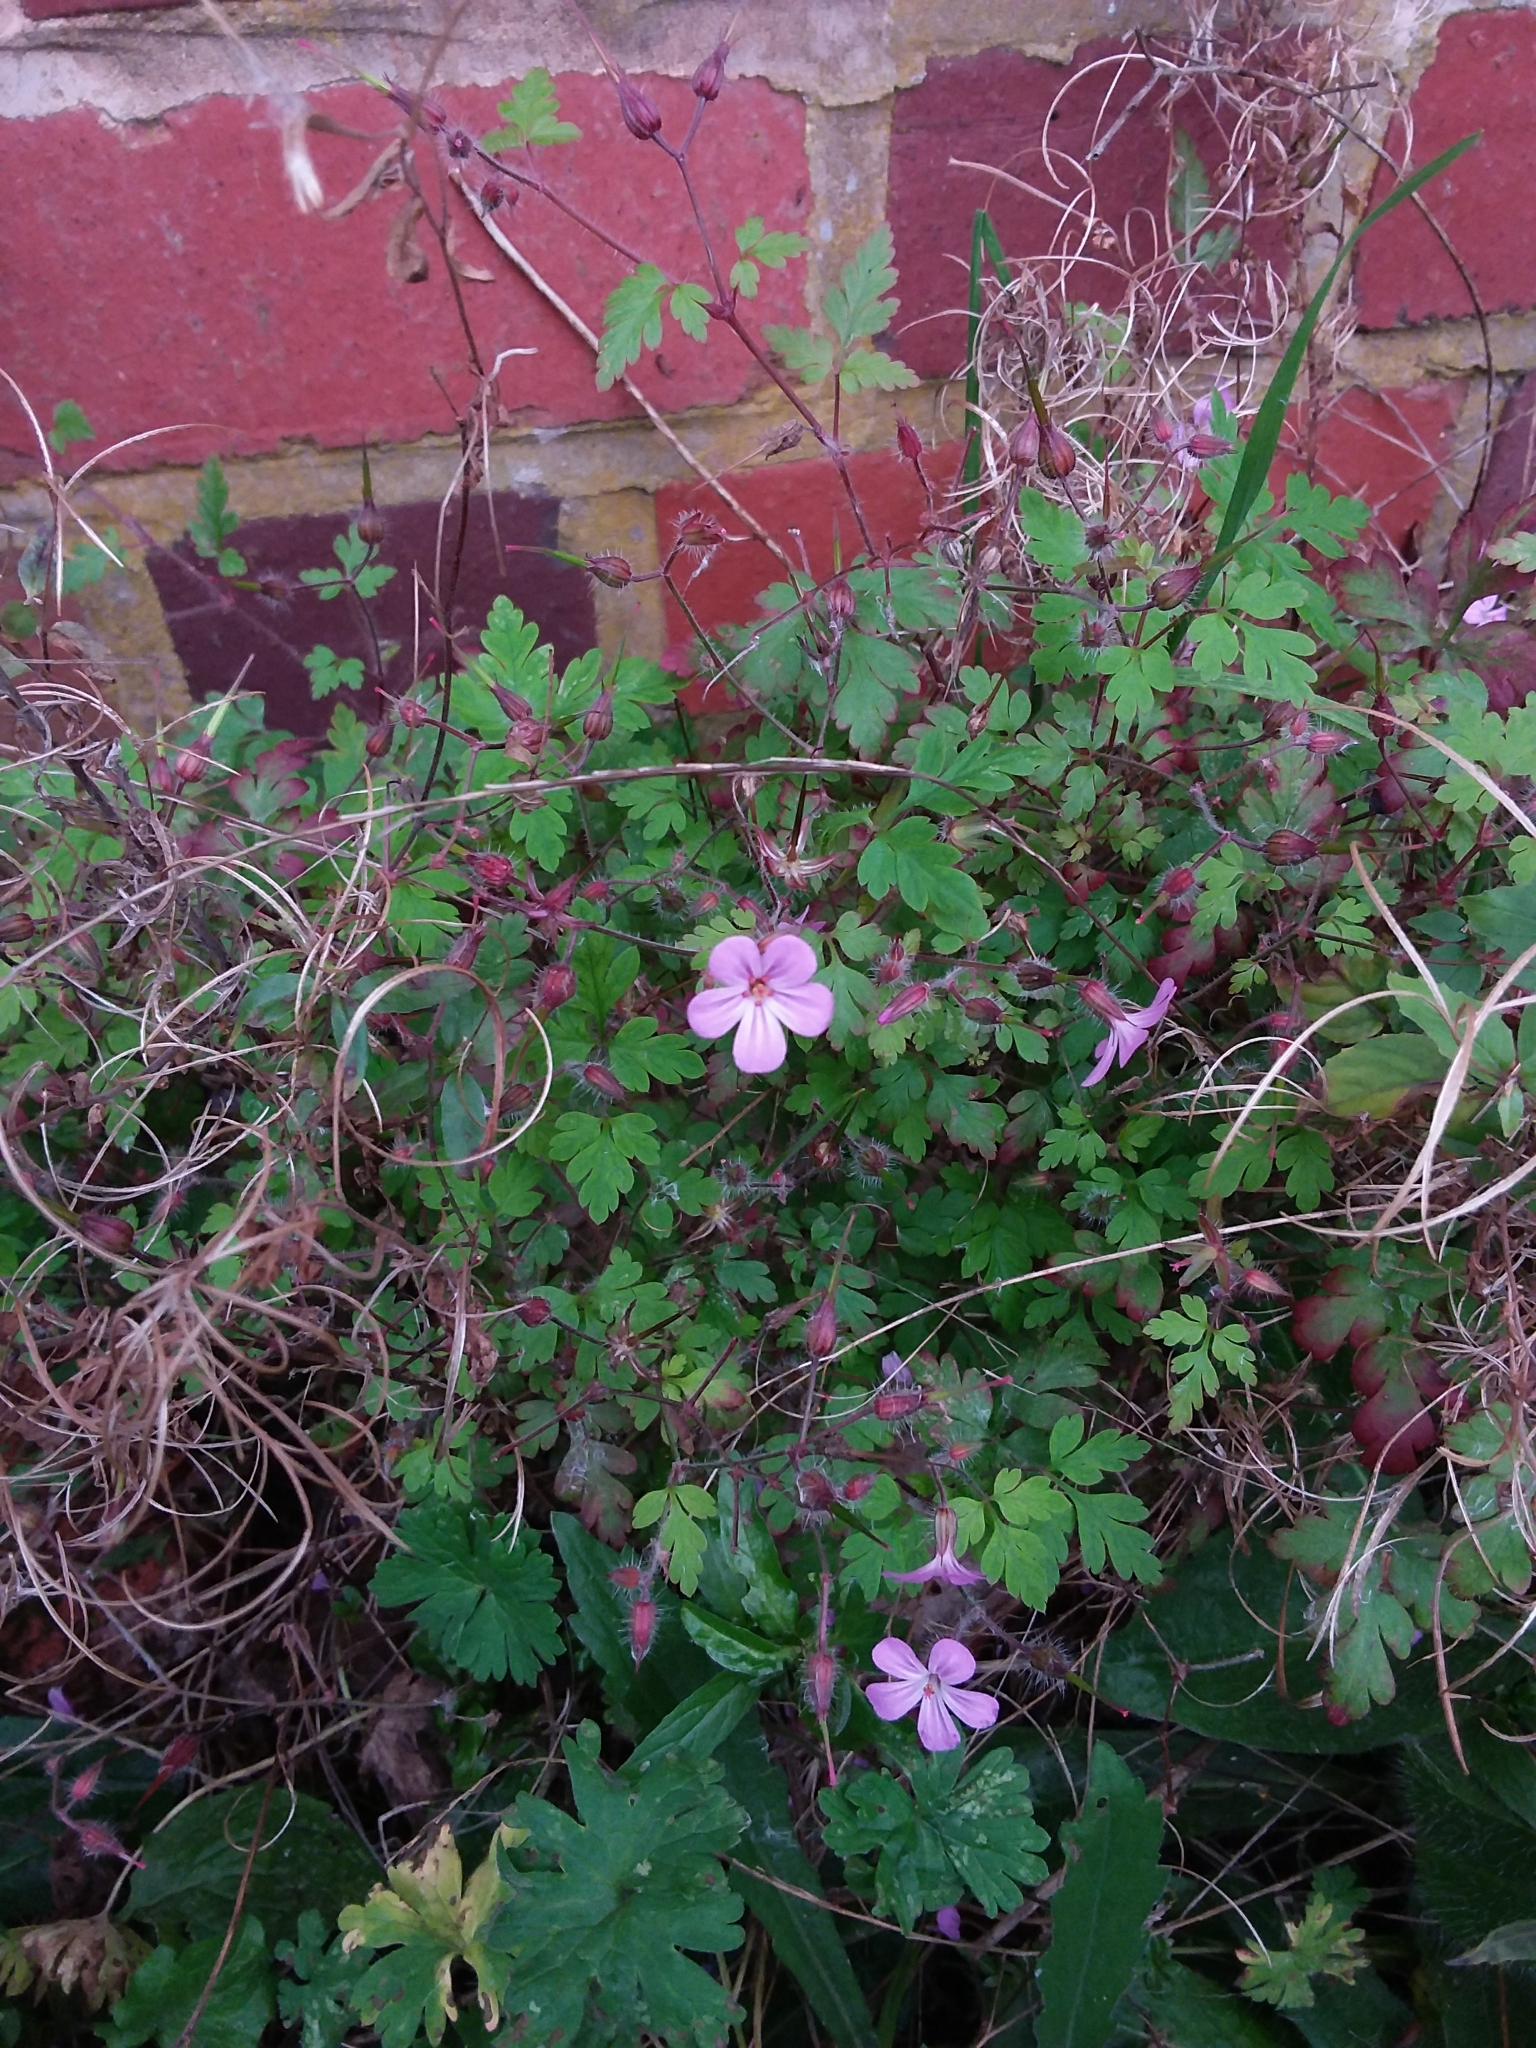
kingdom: Plantae
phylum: Tracheophyta
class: Magnoliopsida
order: Geraniales
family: Geraniaceae
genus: Geranium
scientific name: Geranium robertianum
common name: Herb-robert
